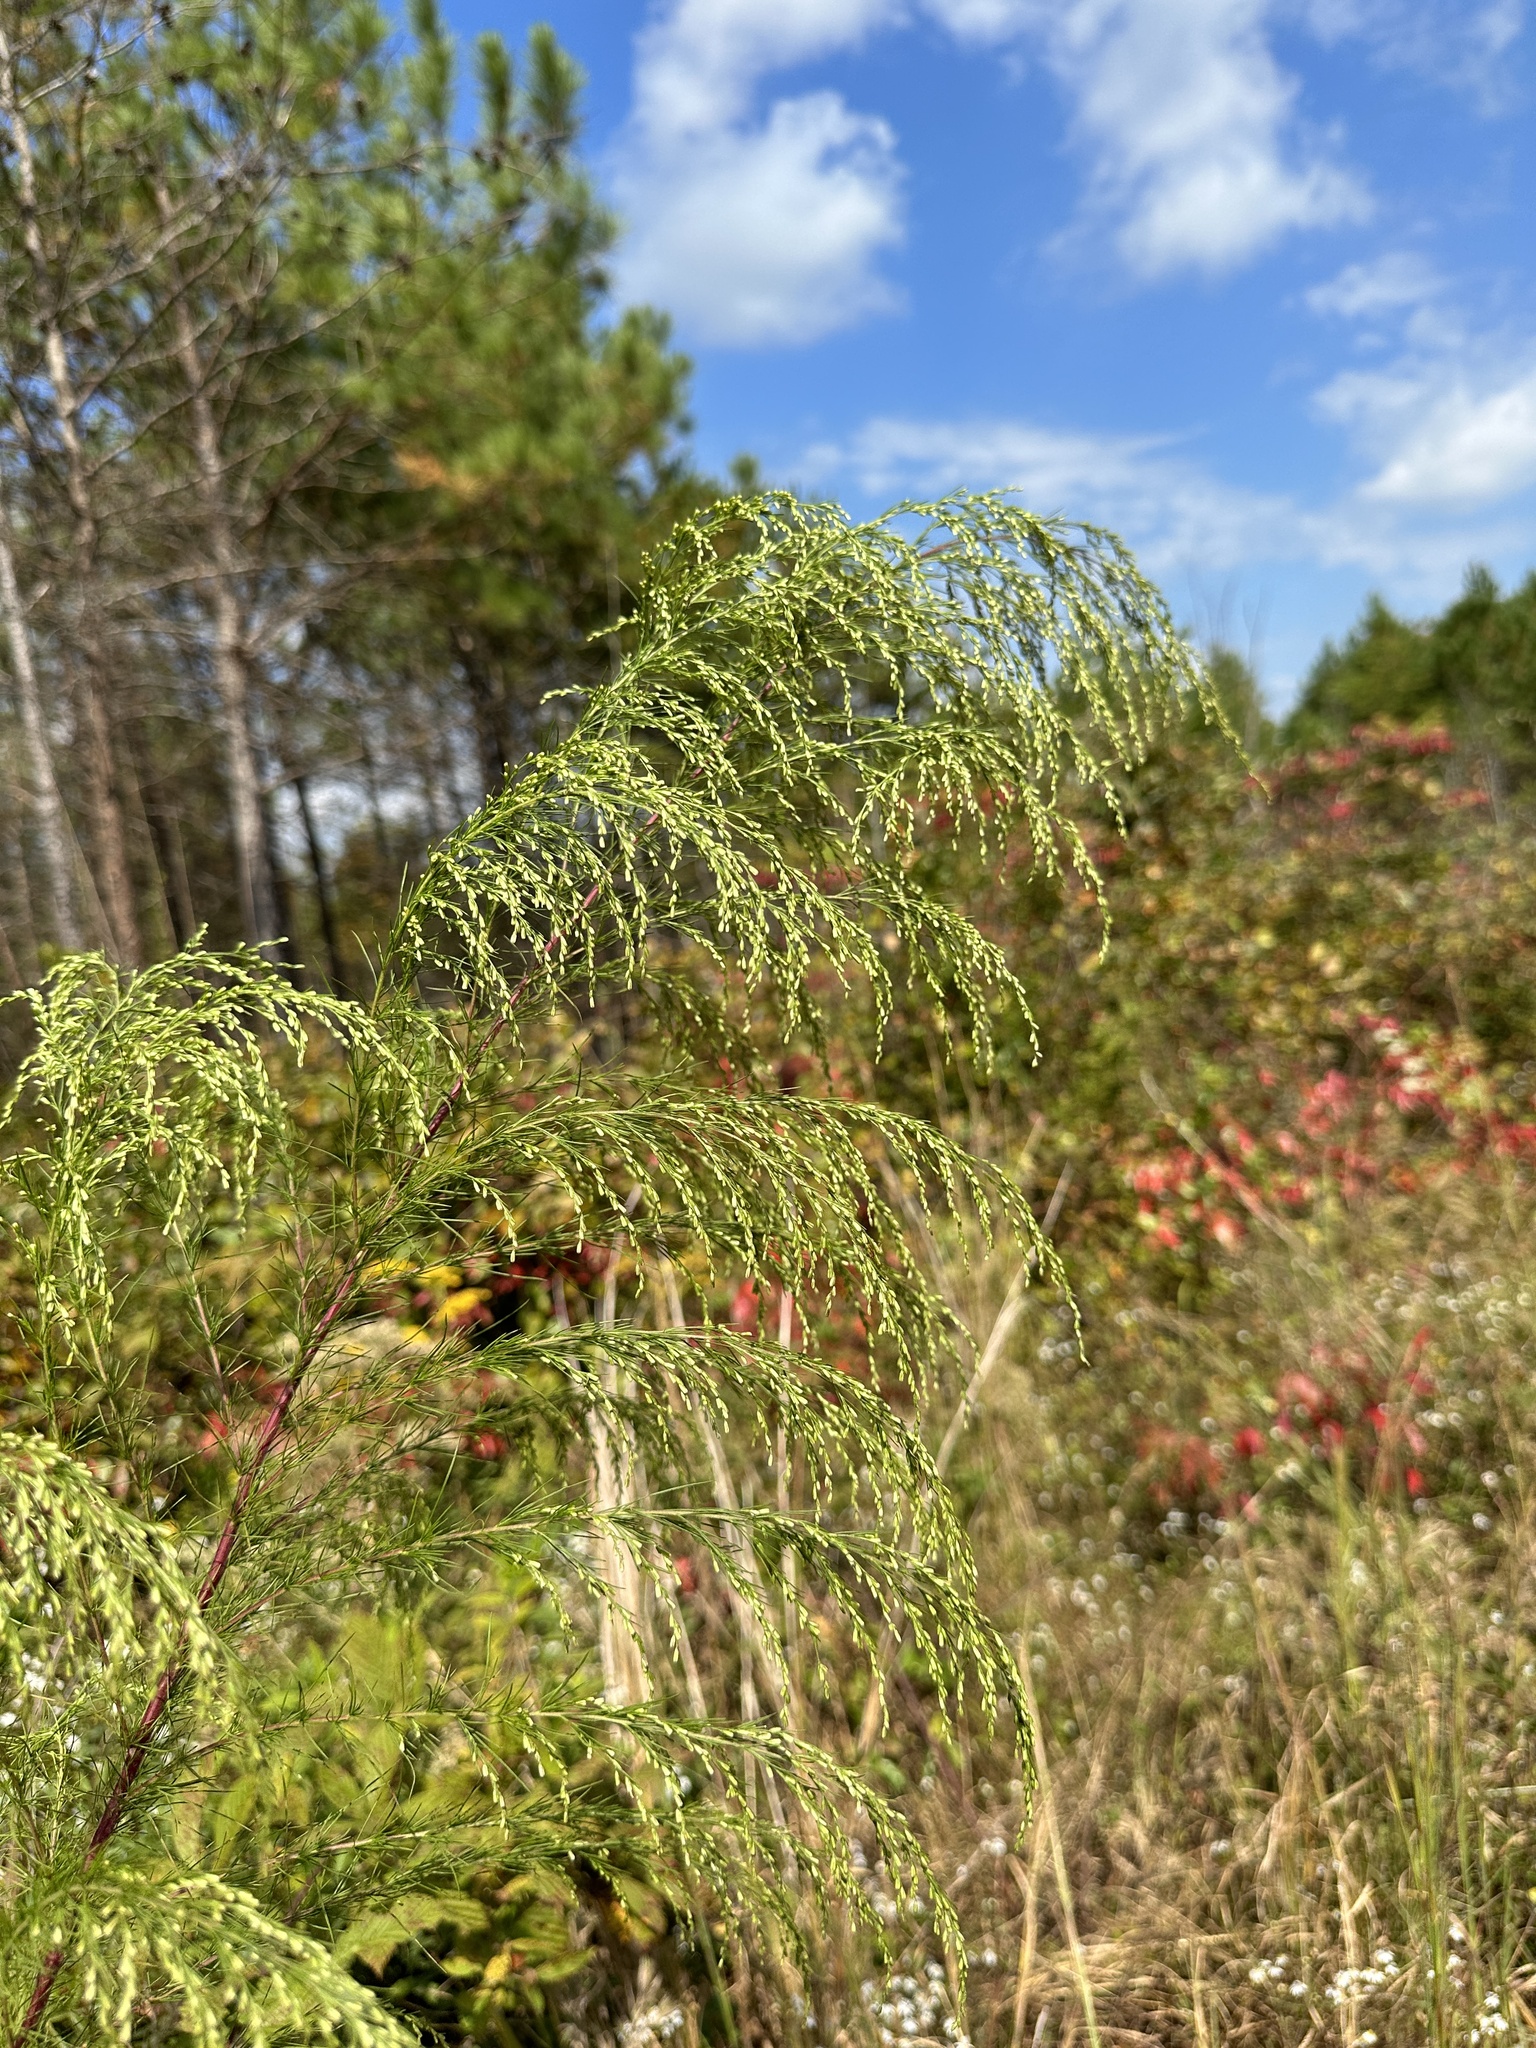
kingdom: Plantae
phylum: Tracheophyta
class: Magnoliopsida
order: Asterales
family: Asteraceae
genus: Eupatorium
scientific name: Eupatorium capillifolium
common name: Dog-fennel
